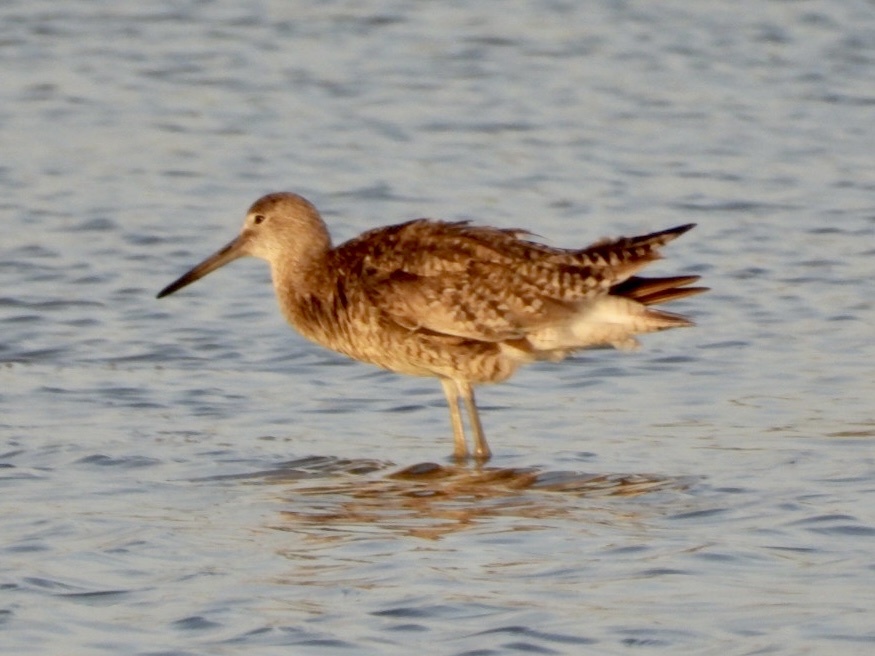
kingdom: Animalia
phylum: Chordata
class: Aves
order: Charadriiformes
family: Scolopacidae
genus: Tringa
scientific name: Tringa semipalmata
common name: Willet
